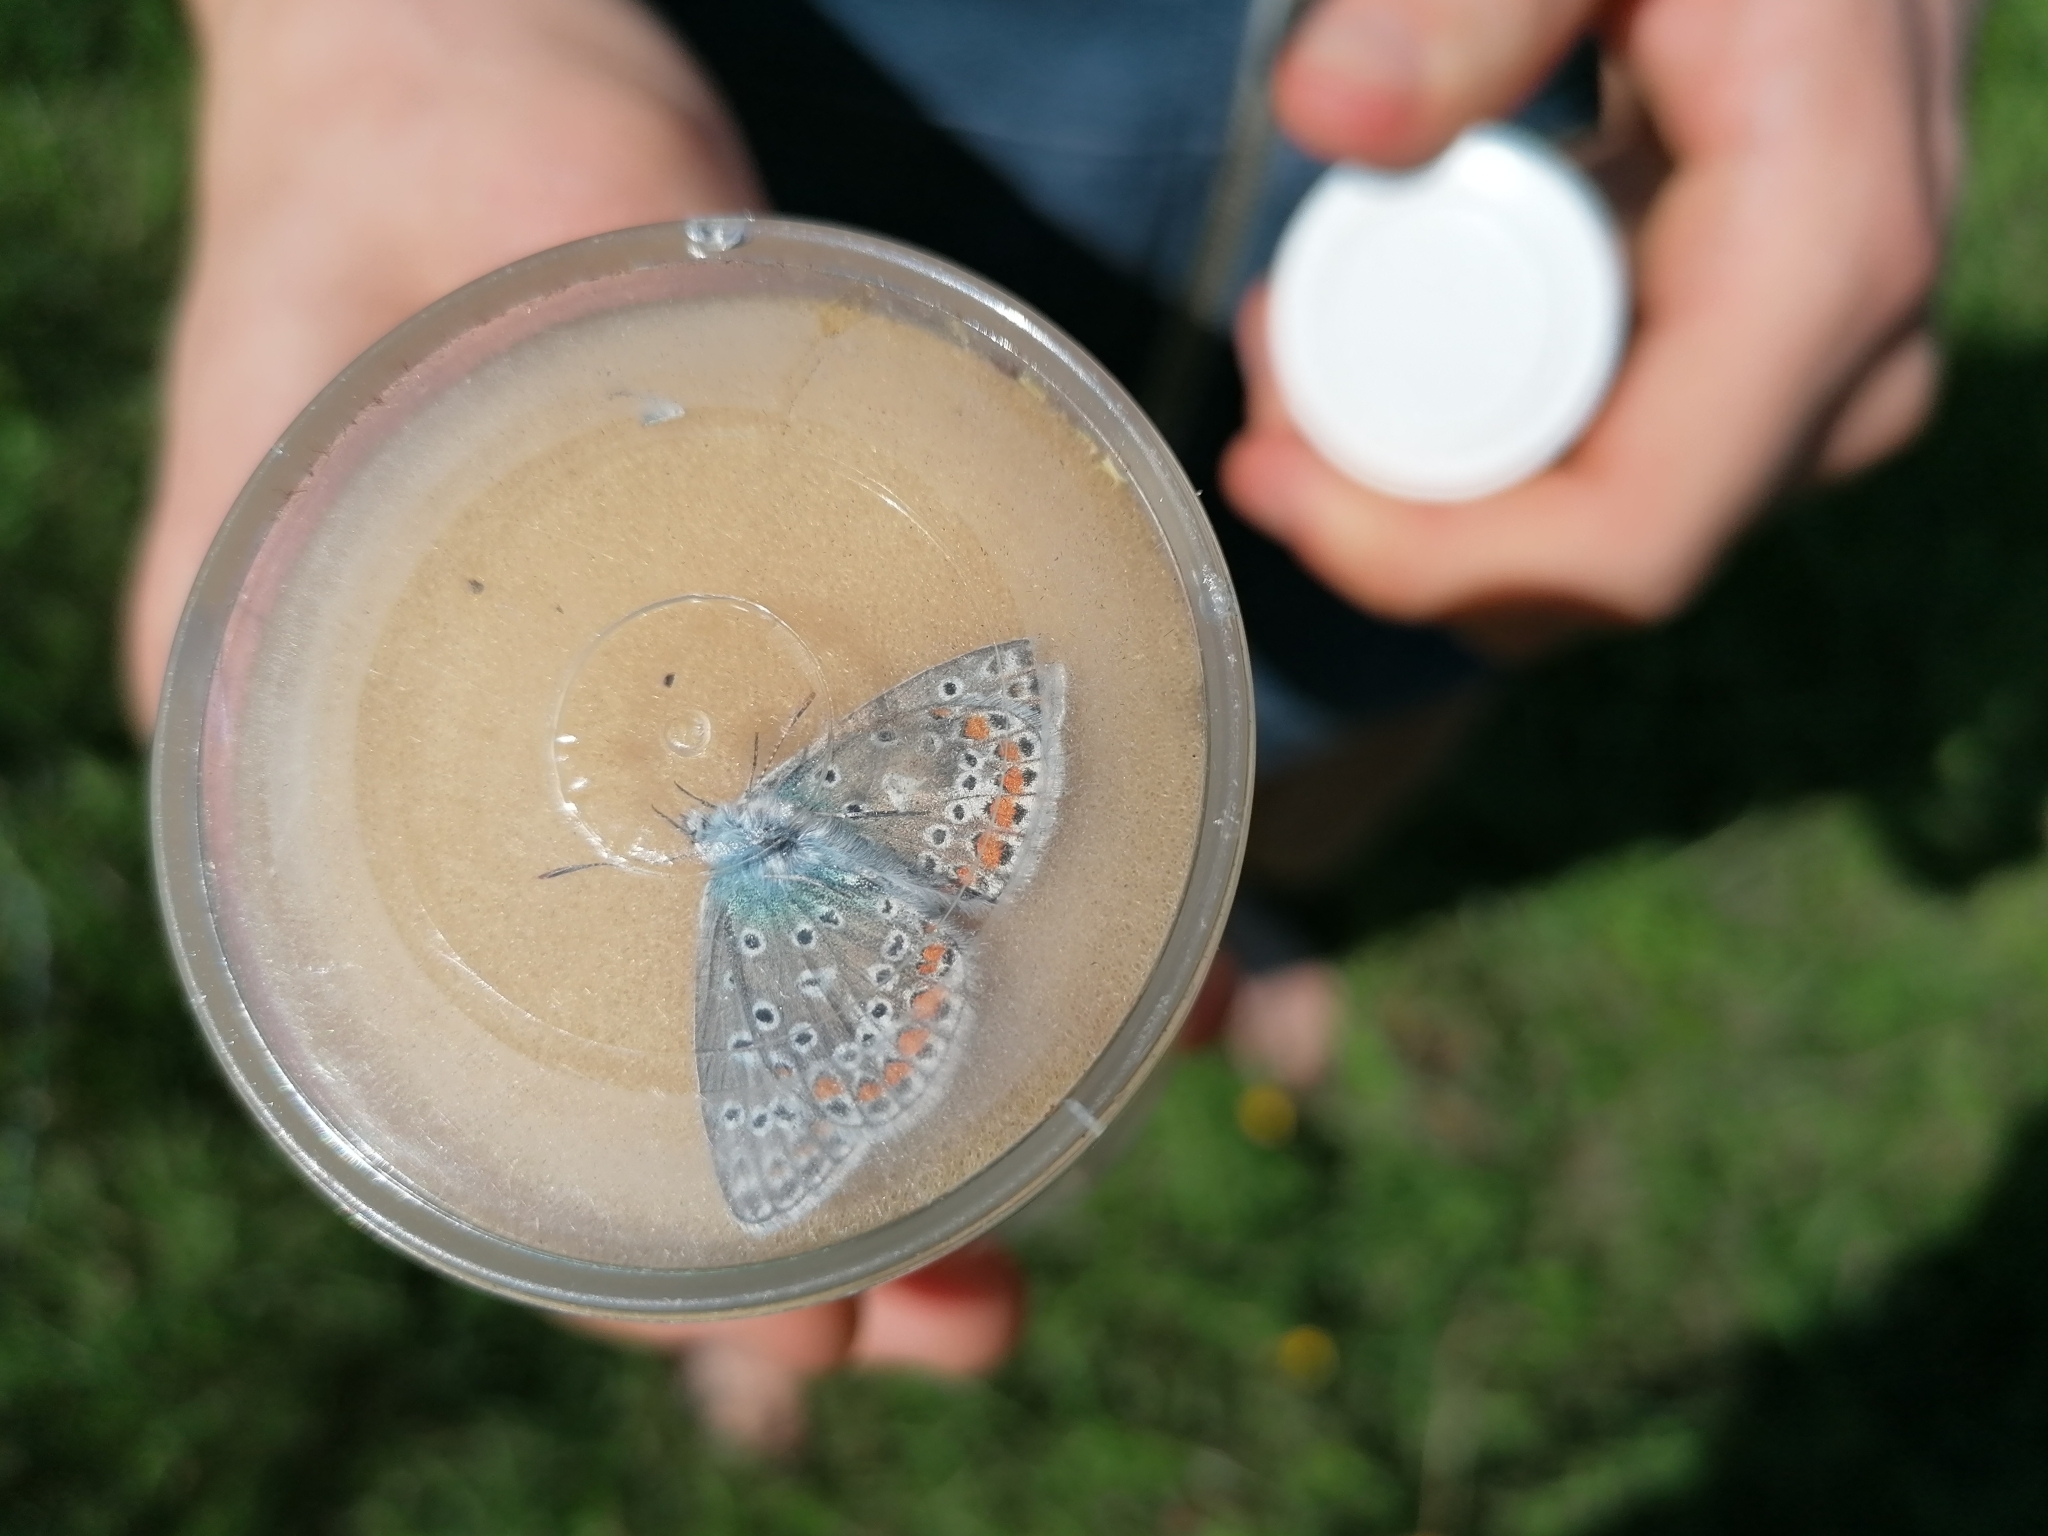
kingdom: Animalia
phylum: Arthropoda
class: Insecta
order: Lepidoptera
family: Lycaenidae
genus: Polyommatus
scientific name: Polyommatus icarus
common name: Common blue
